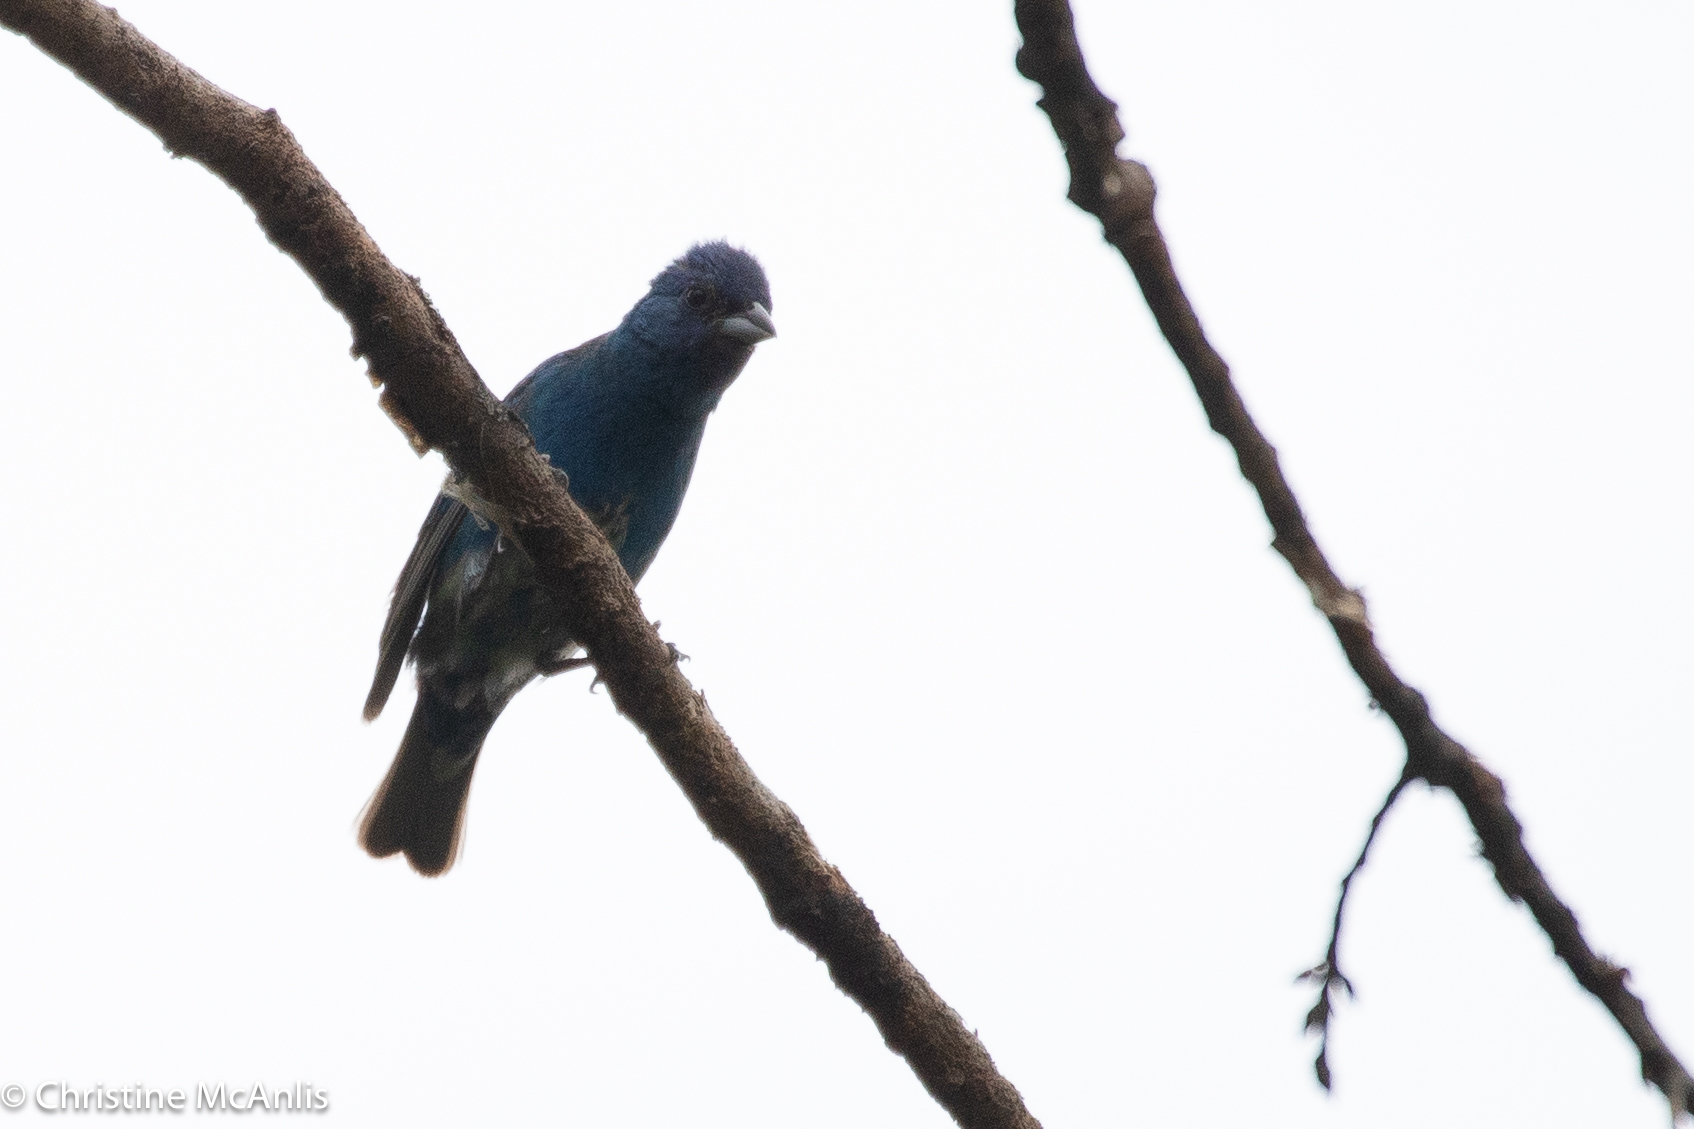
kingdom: Animalia
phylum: Chordata
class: Aves
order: Passeriformes
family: Cardinalidae
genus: Passerina
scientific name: Passerina cyanea
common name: Indigo bunting
